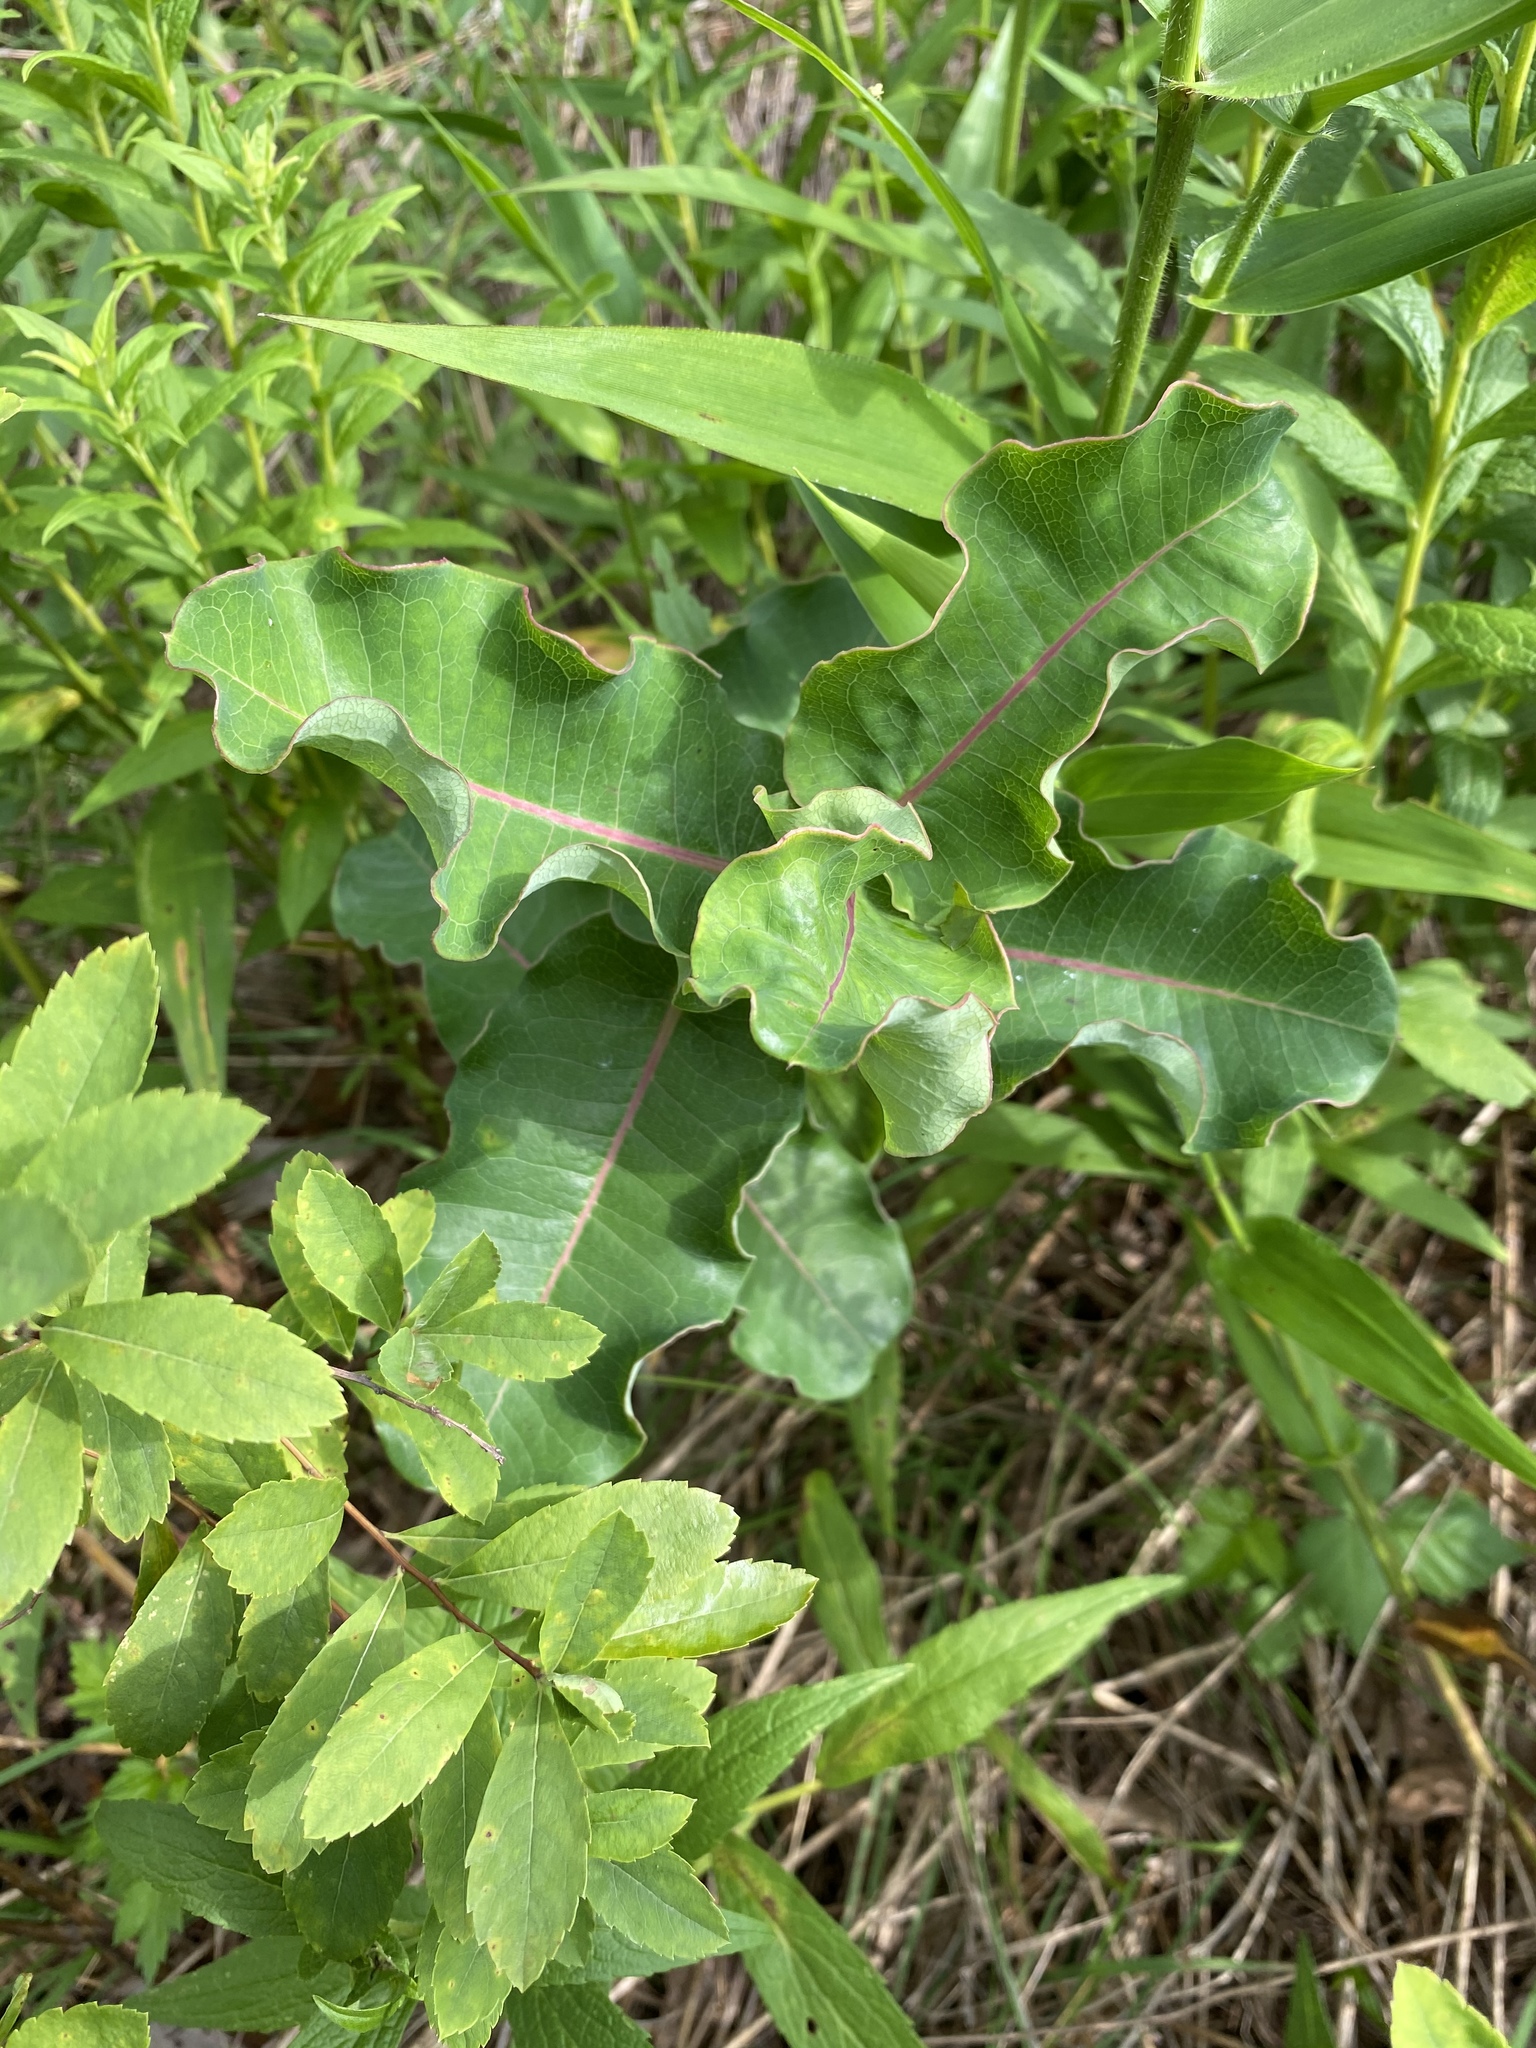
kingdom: Plantae
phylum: Tracheophyta
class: Magnoliopsida
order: Gentianales
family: Apocynaceae
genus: Asclepias
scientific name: Asclepias amplexicaulis
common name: Blunt-leaf milkweed
